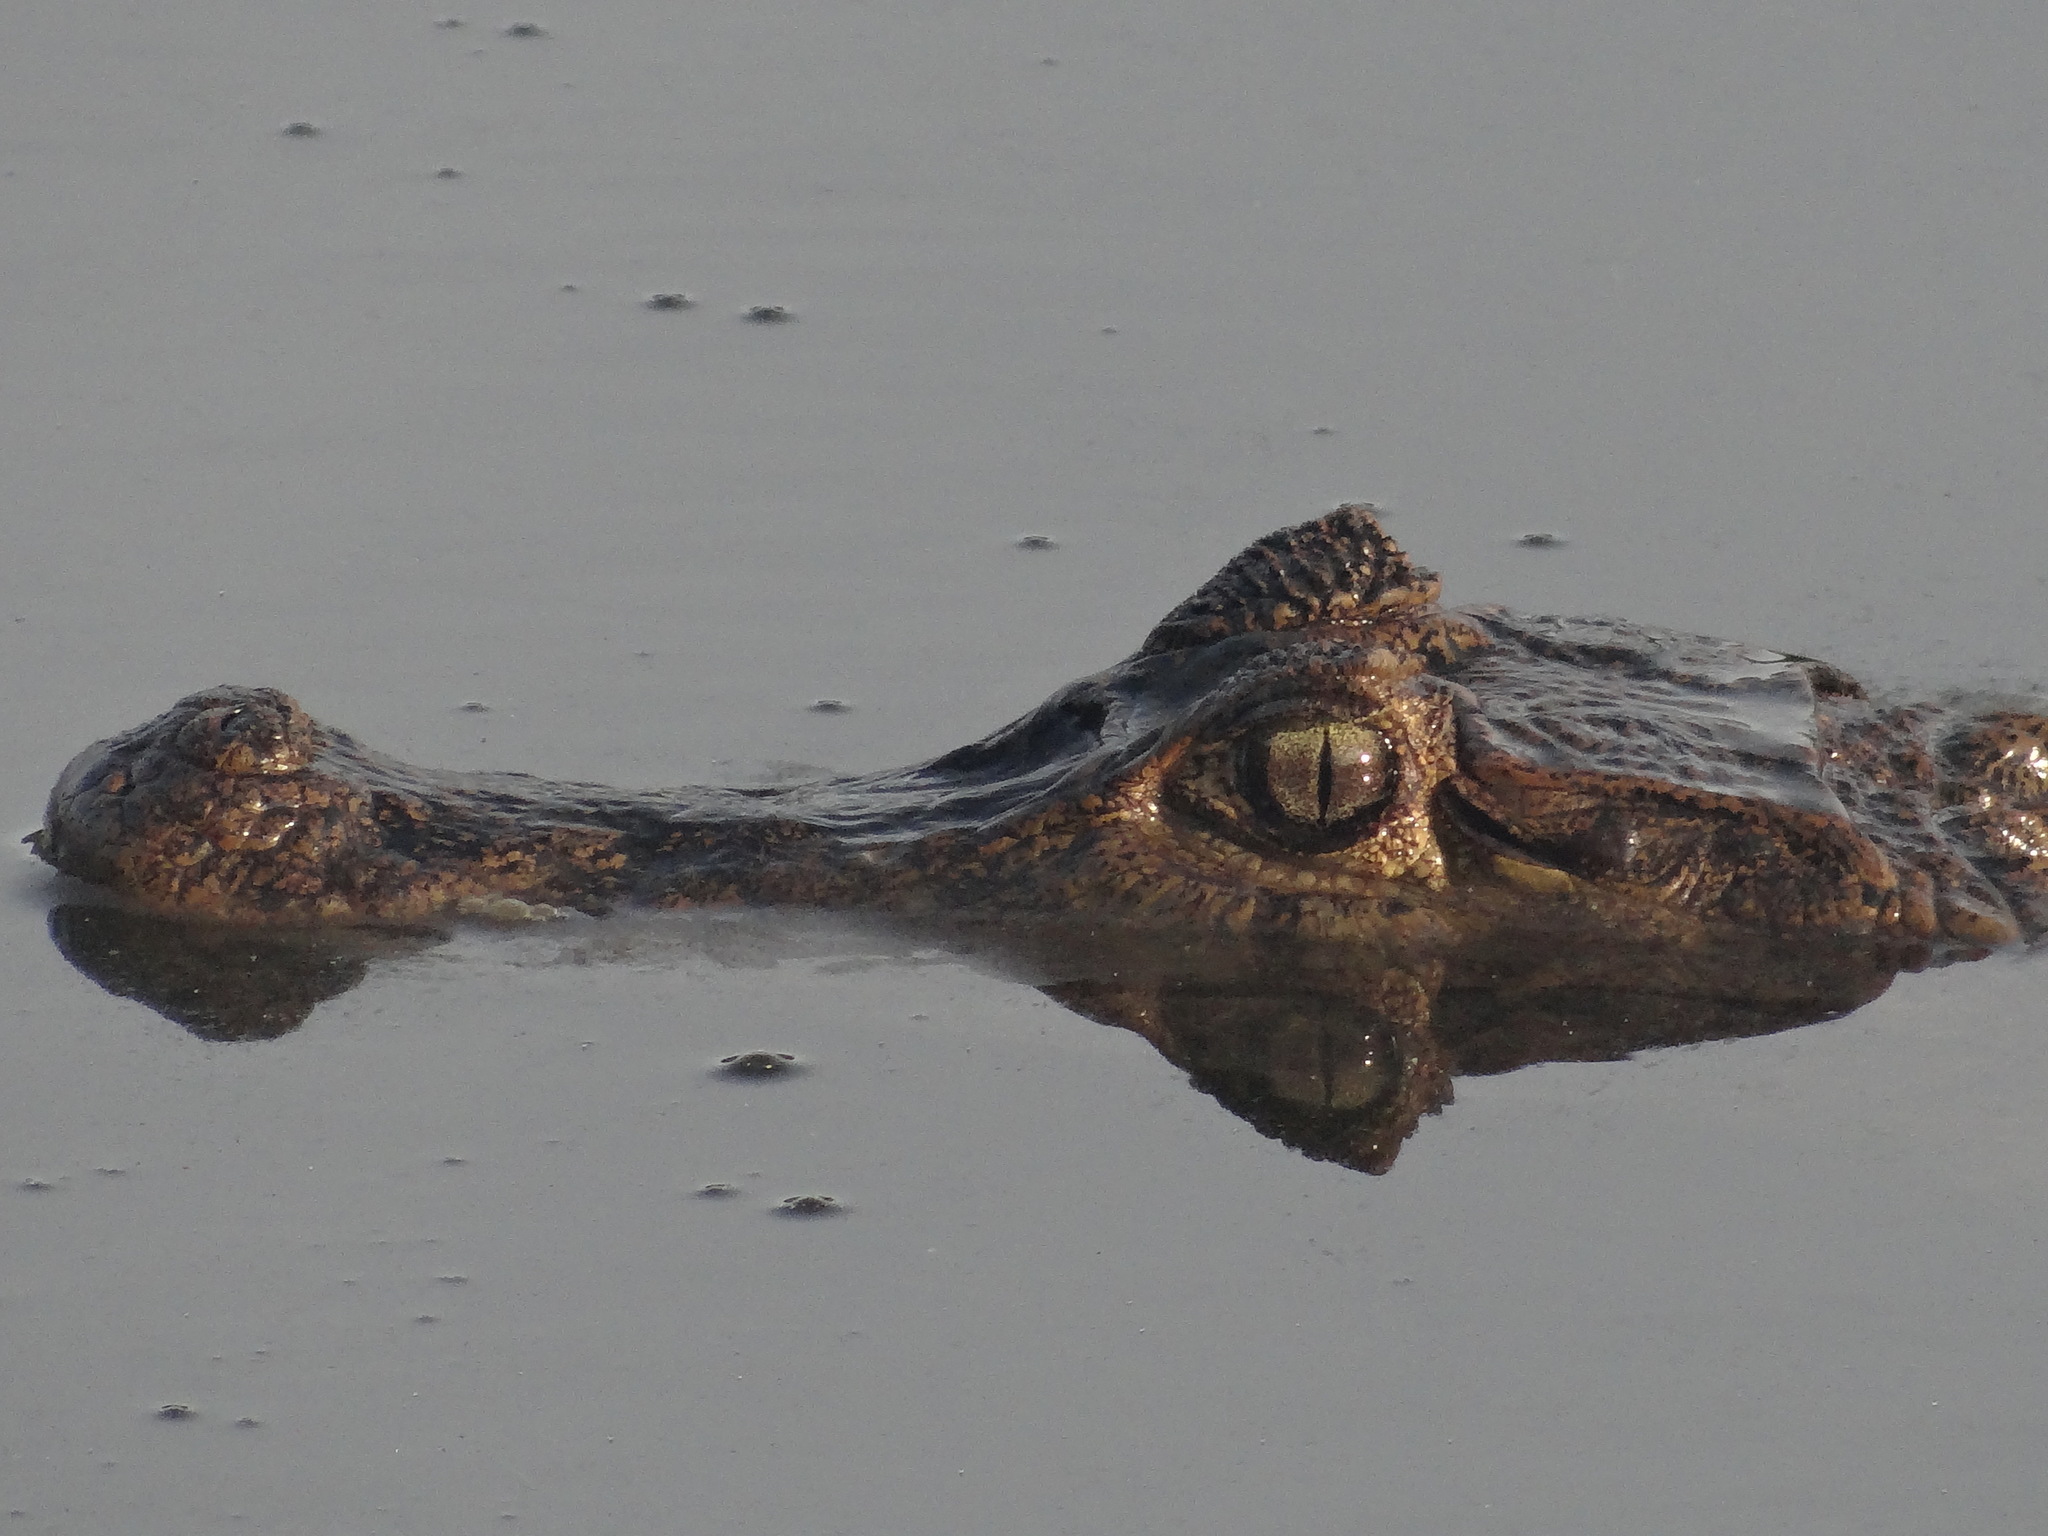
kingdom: Animalia
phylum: Chordata
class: Crocodylia
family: Alligatoridae
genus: Caiman
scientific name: Caiman crocodilus
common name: Common caiman
